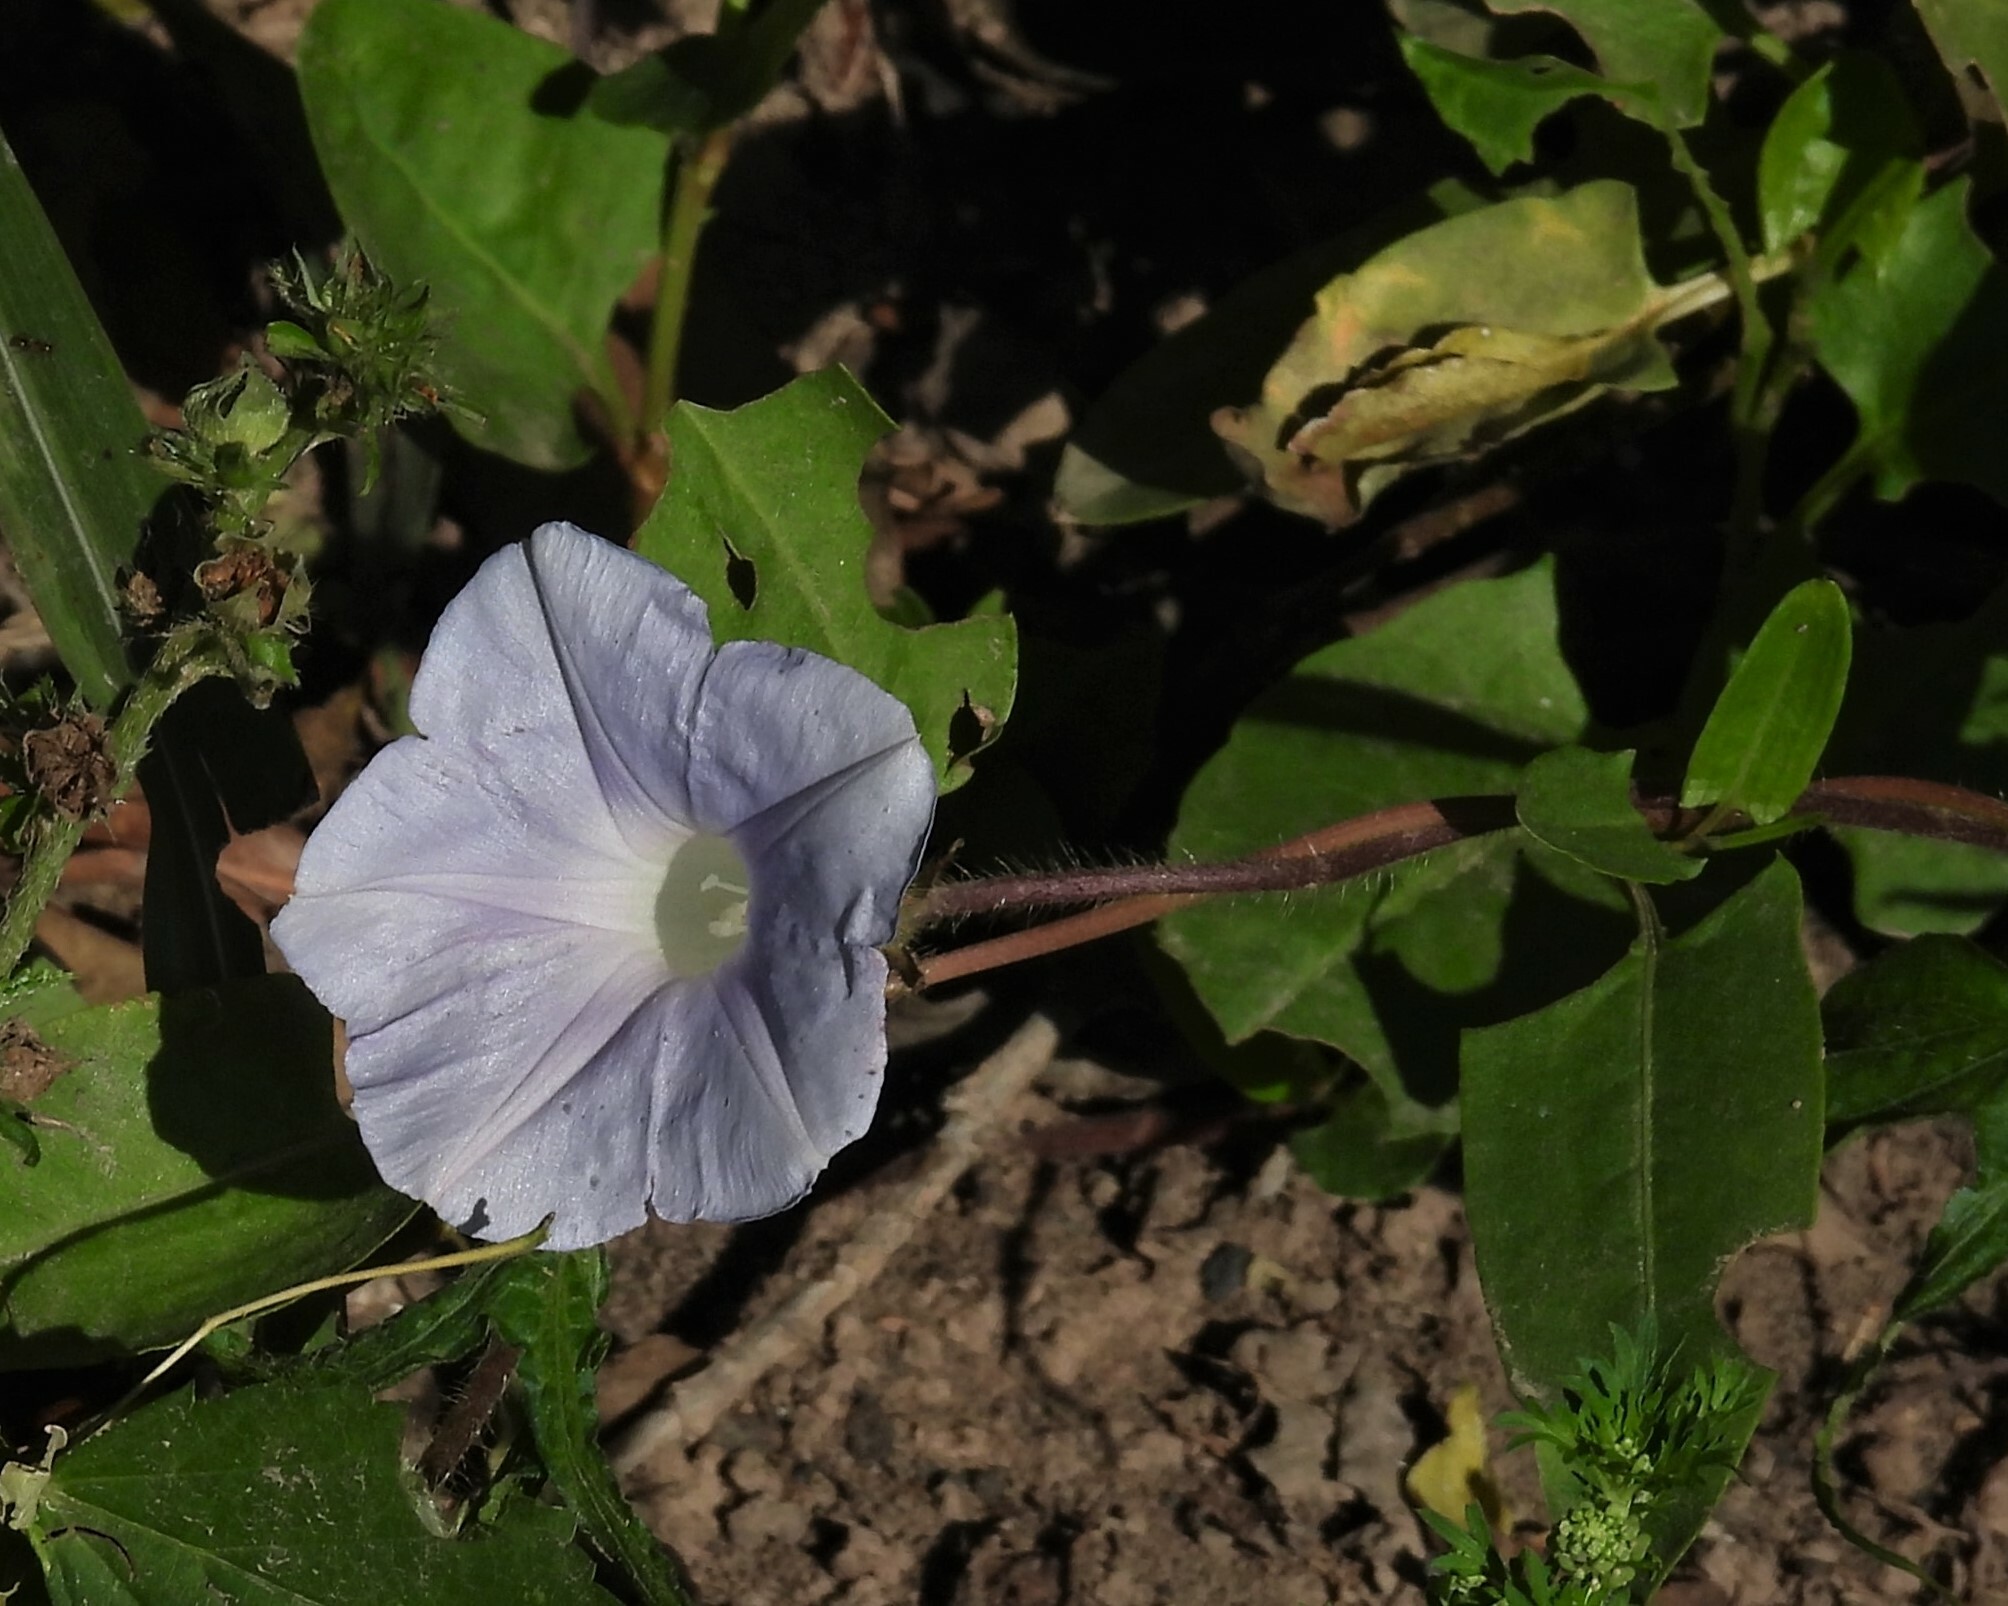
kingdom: Plantae
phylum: Tracheophyta
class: Magnoliopsida
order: Solanales
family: Convolvulaceae
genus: Ipomoea
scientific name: Ipomoea nil
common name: Japanese morning-glory
